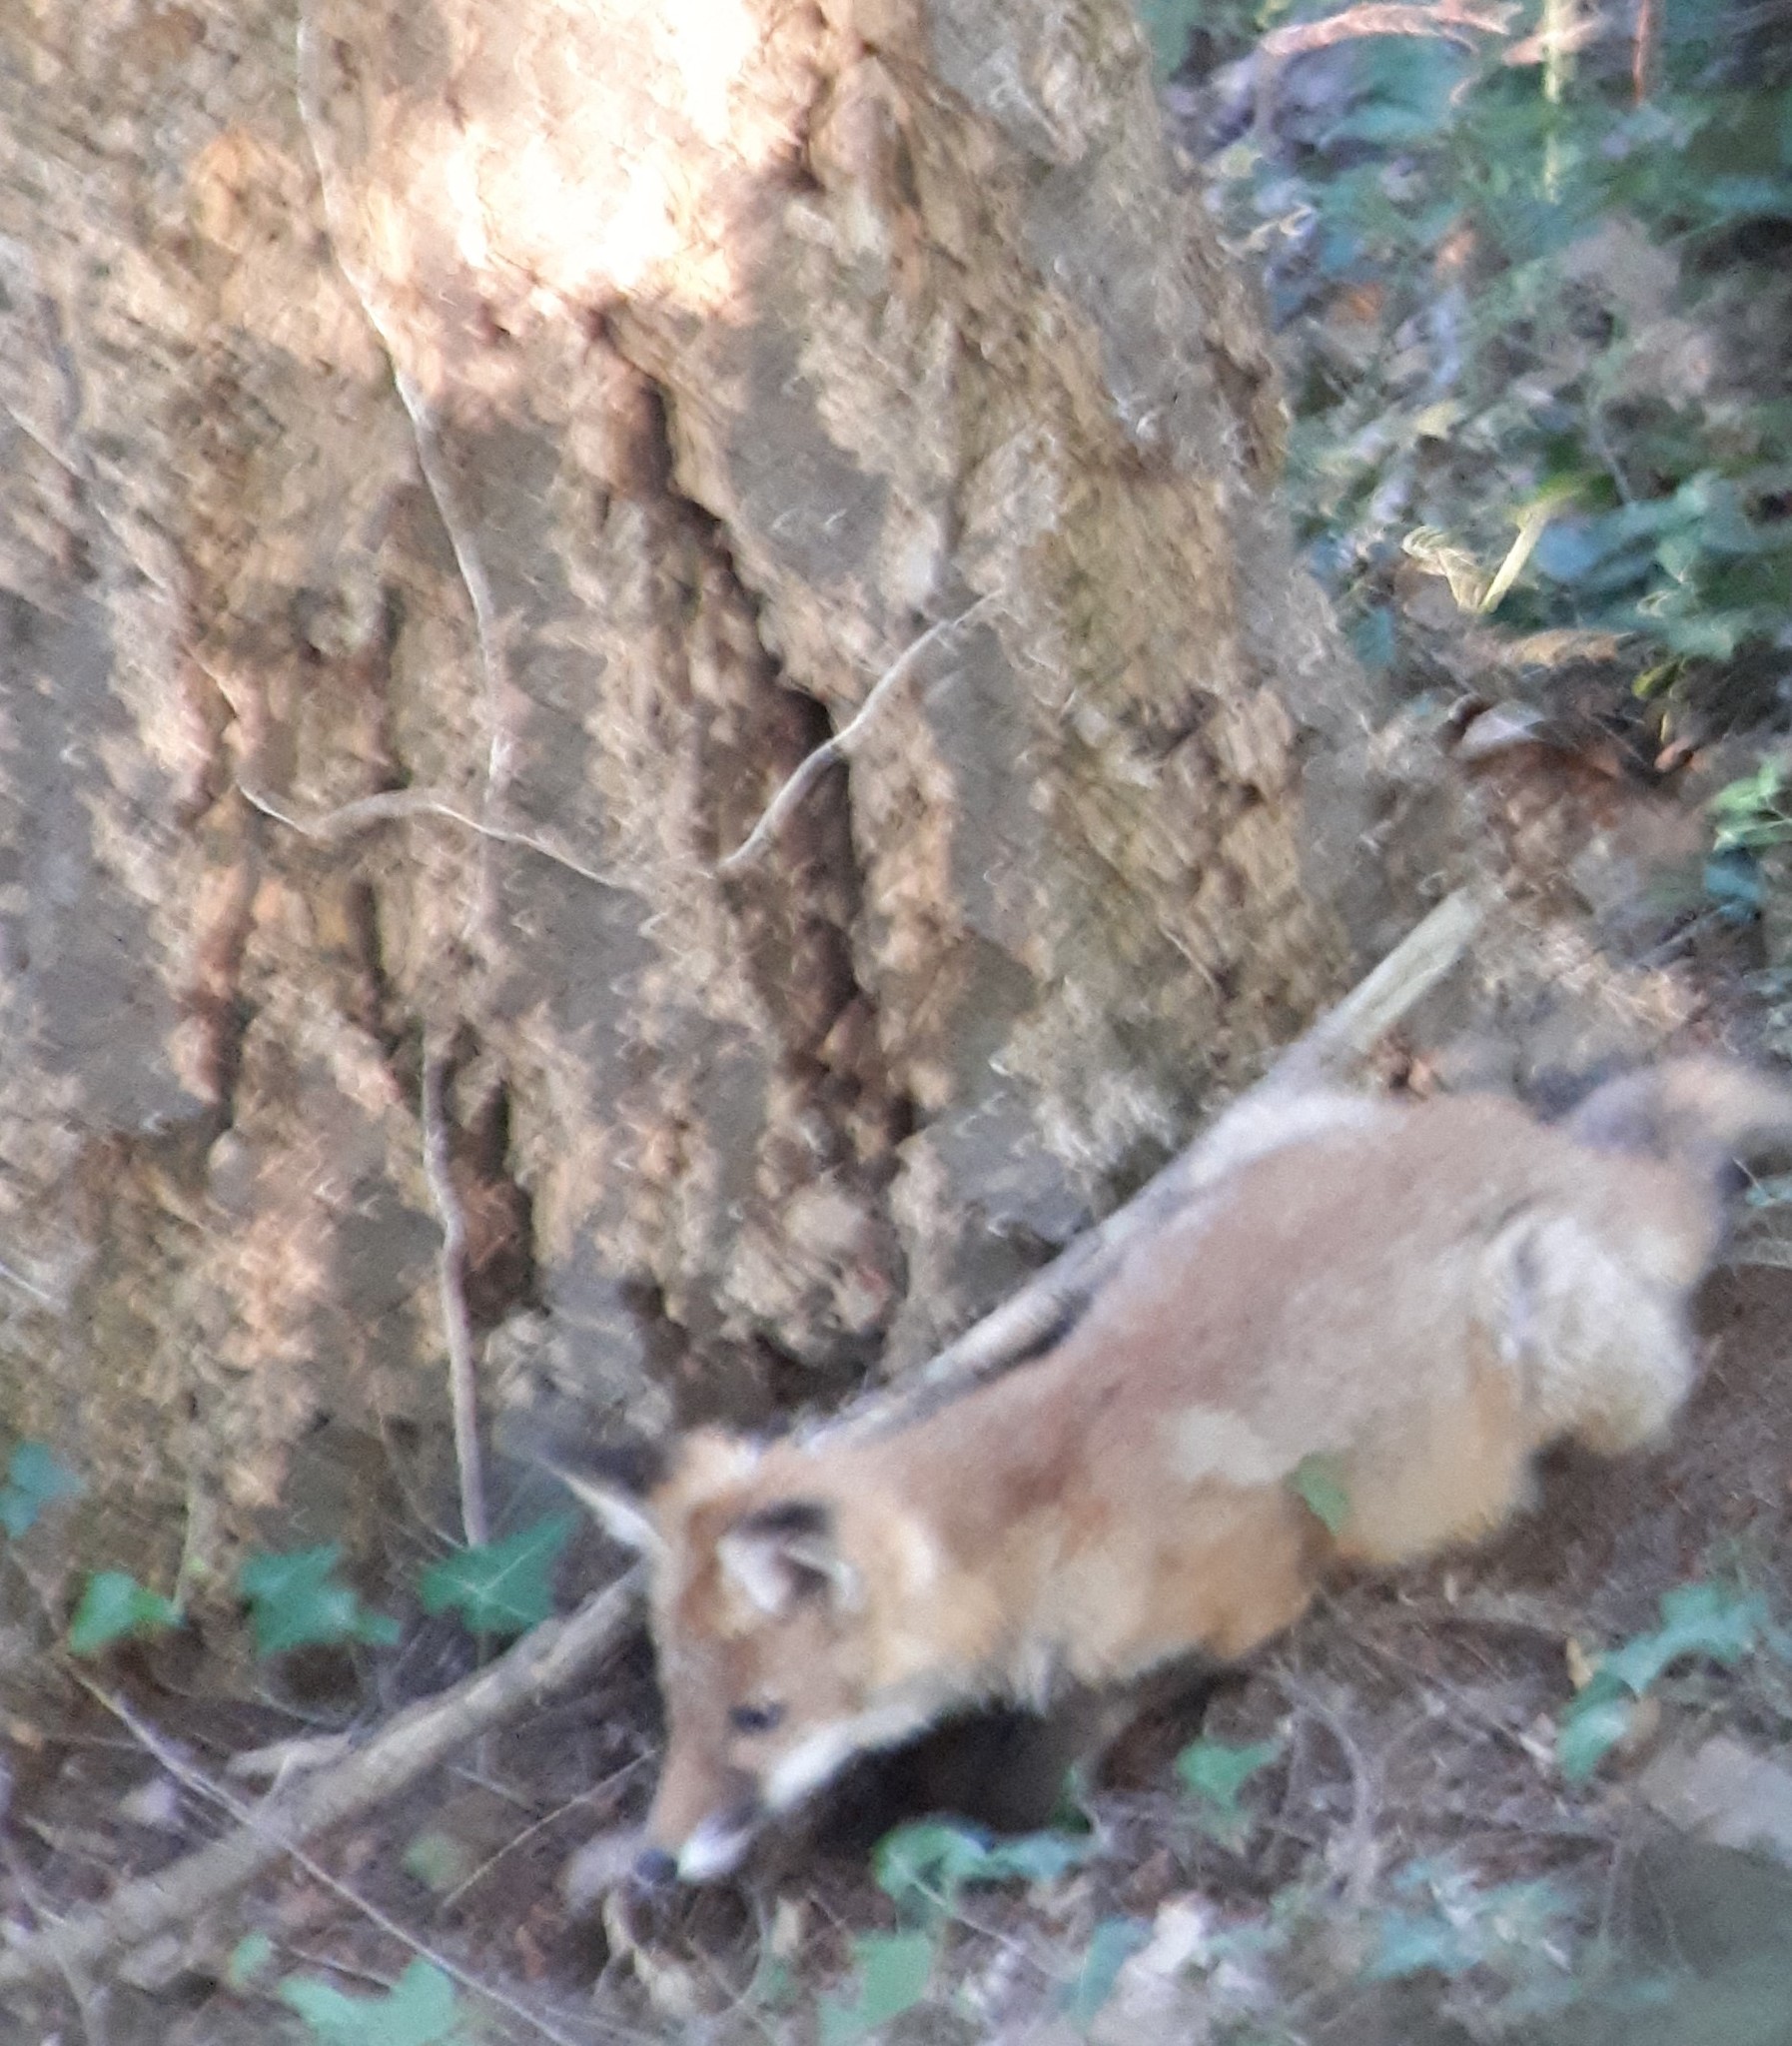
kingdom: Animalia
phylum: Chordata
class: Mammalia
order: Carnivora
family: Canidae
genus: Vulpes
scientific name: Vulpes vulpes
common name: Red fox
